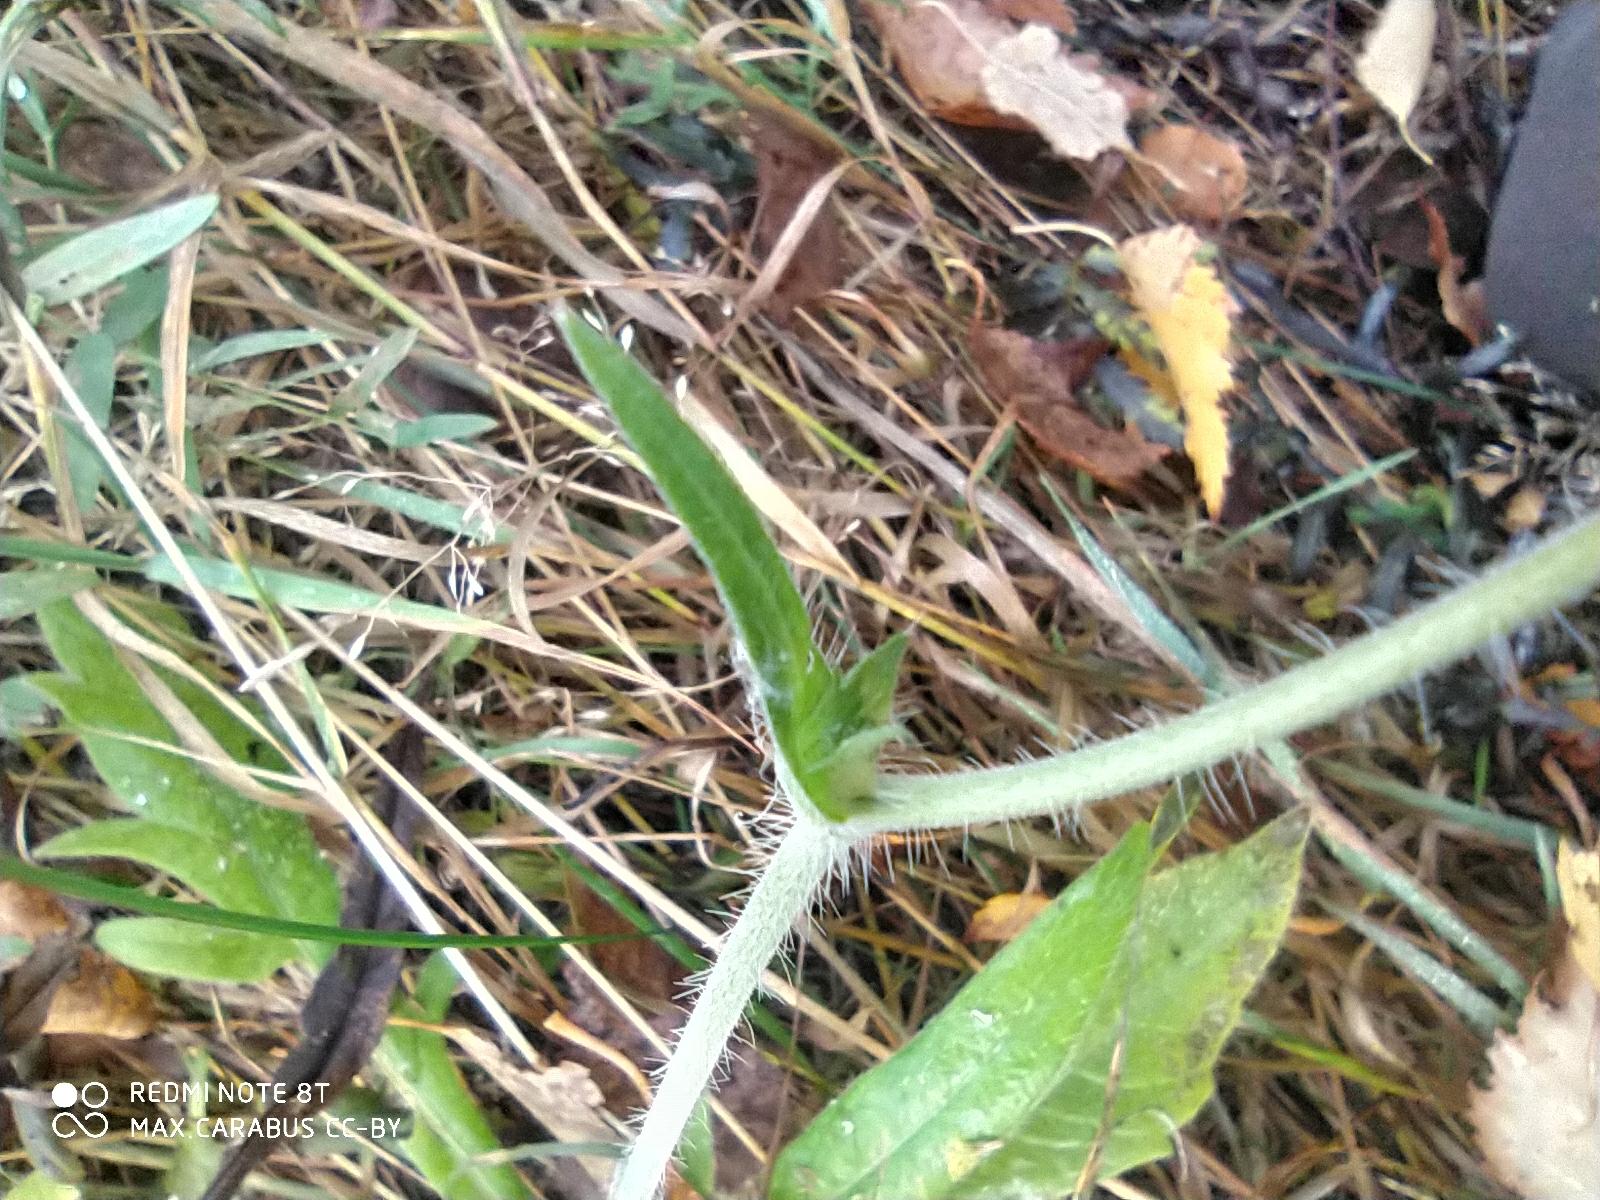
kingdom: Plantae
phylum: Tracheophyta
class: Magnoliopsida
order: Dipsacales
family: Caprifoliaceae
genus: Knautia
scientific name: Knautia arvensis
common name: Field scabiosa
